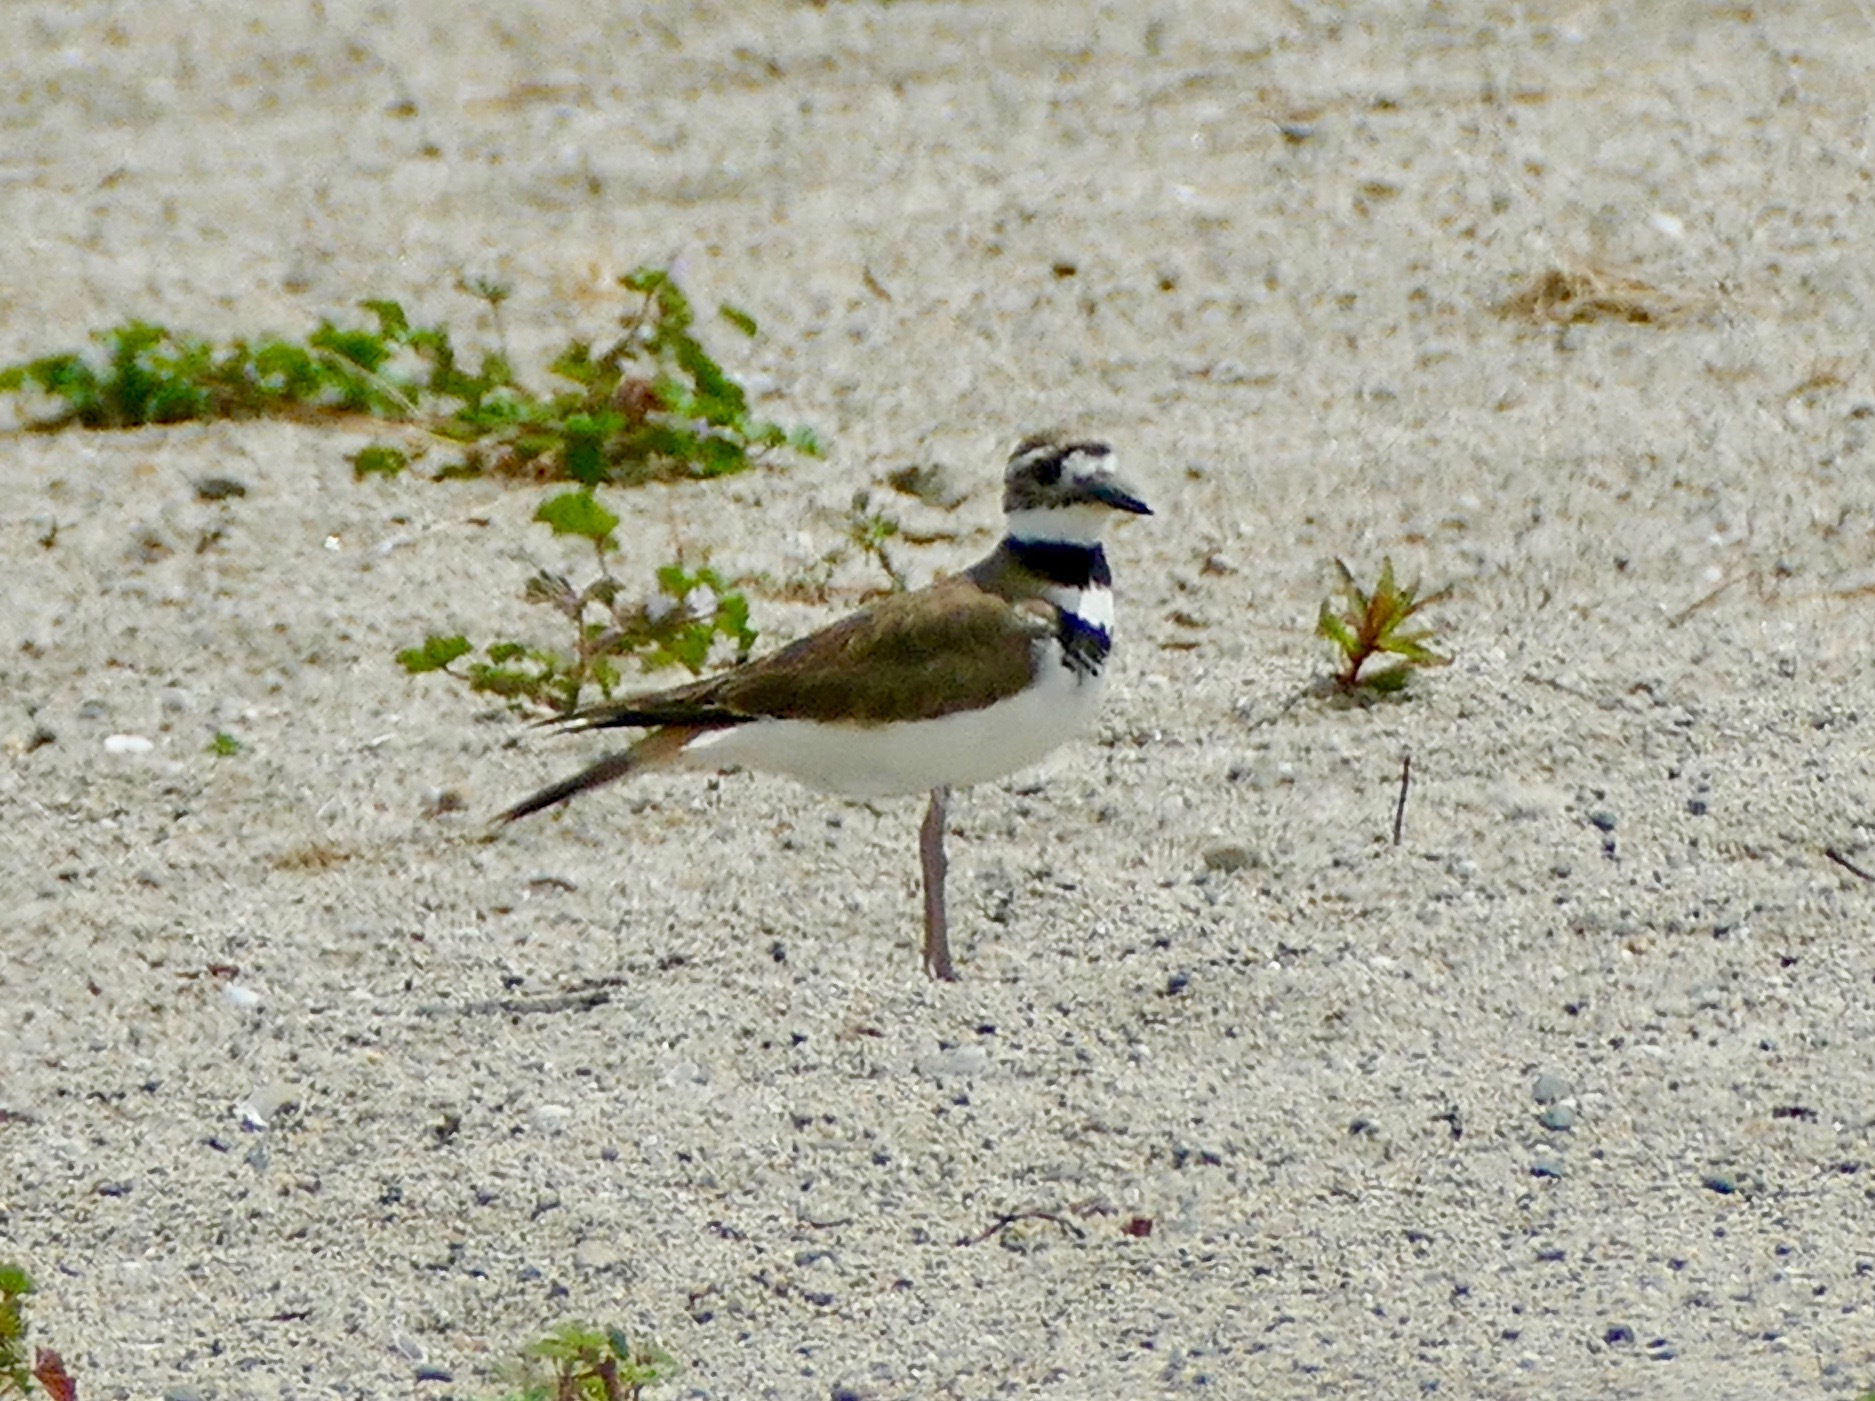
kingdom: Animalia
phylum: Chordata
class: Aves
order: Charadriiformes
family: Charadriidae
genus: Charadrius
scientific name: Charadrius vociferus
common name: Killdeer
